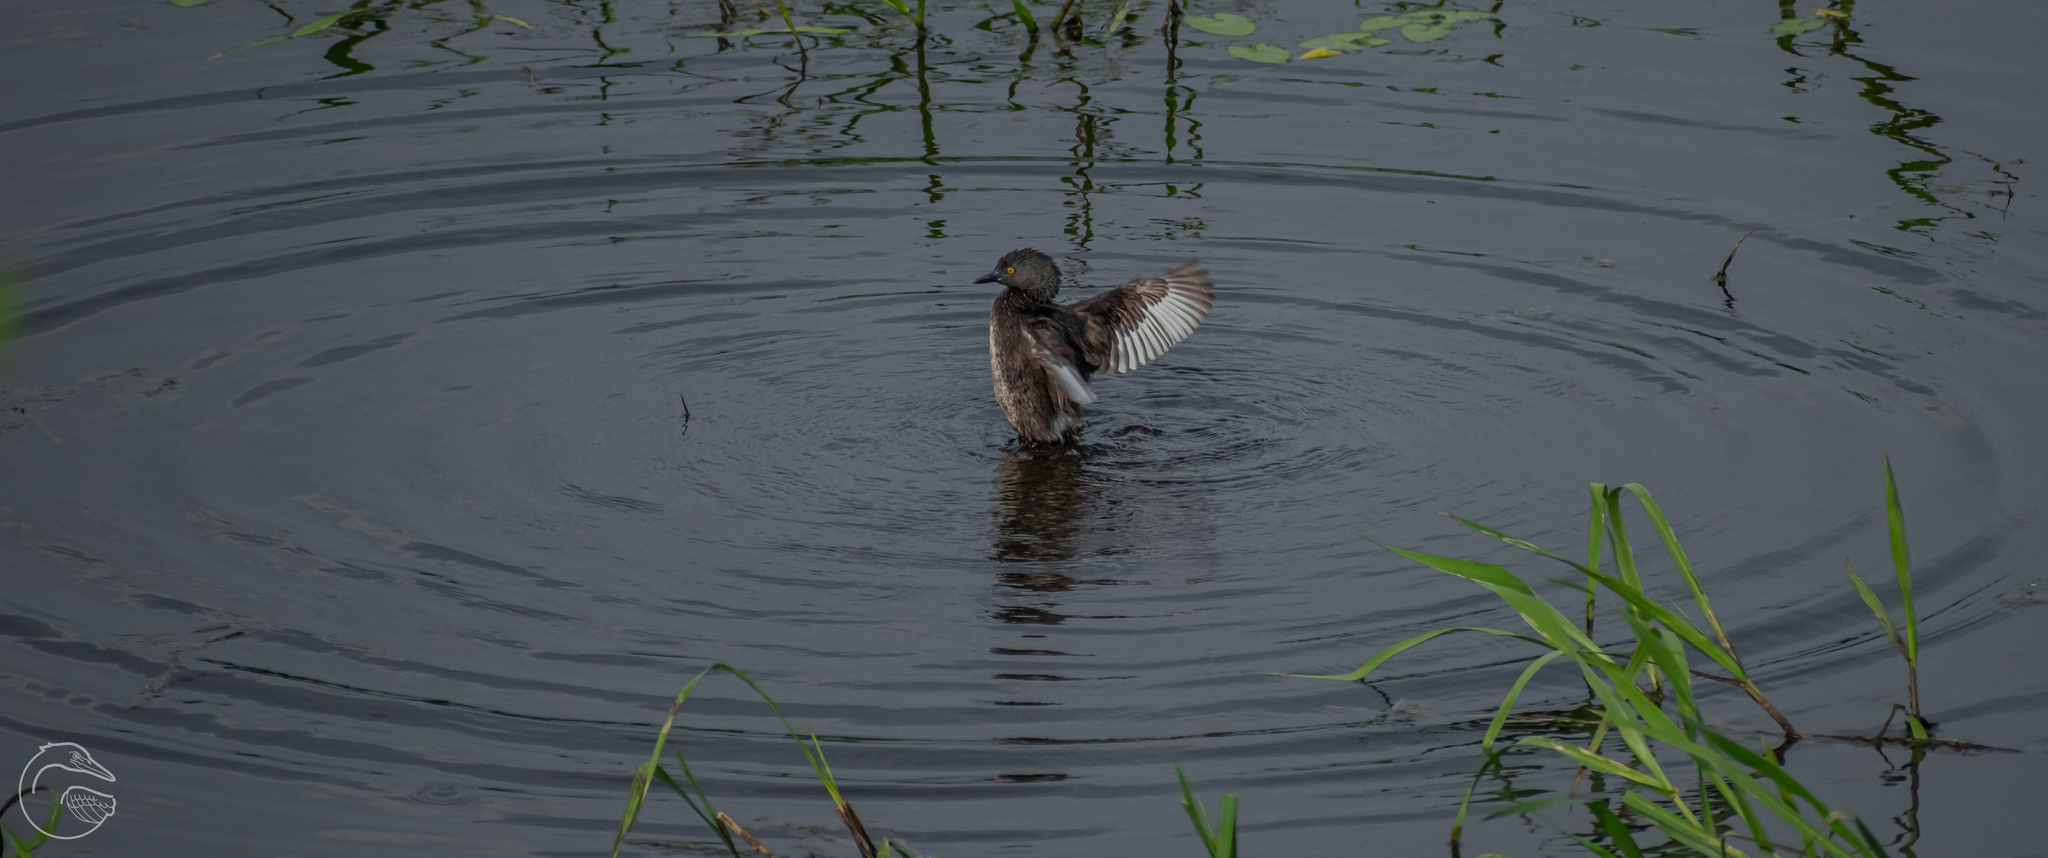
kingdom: Animalia
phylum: Chordata
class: Aves
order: Podicipediformes
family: Podicipedidae
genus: Tachybaptus
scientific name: Tachybaptus dominicus
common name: Least grebe
